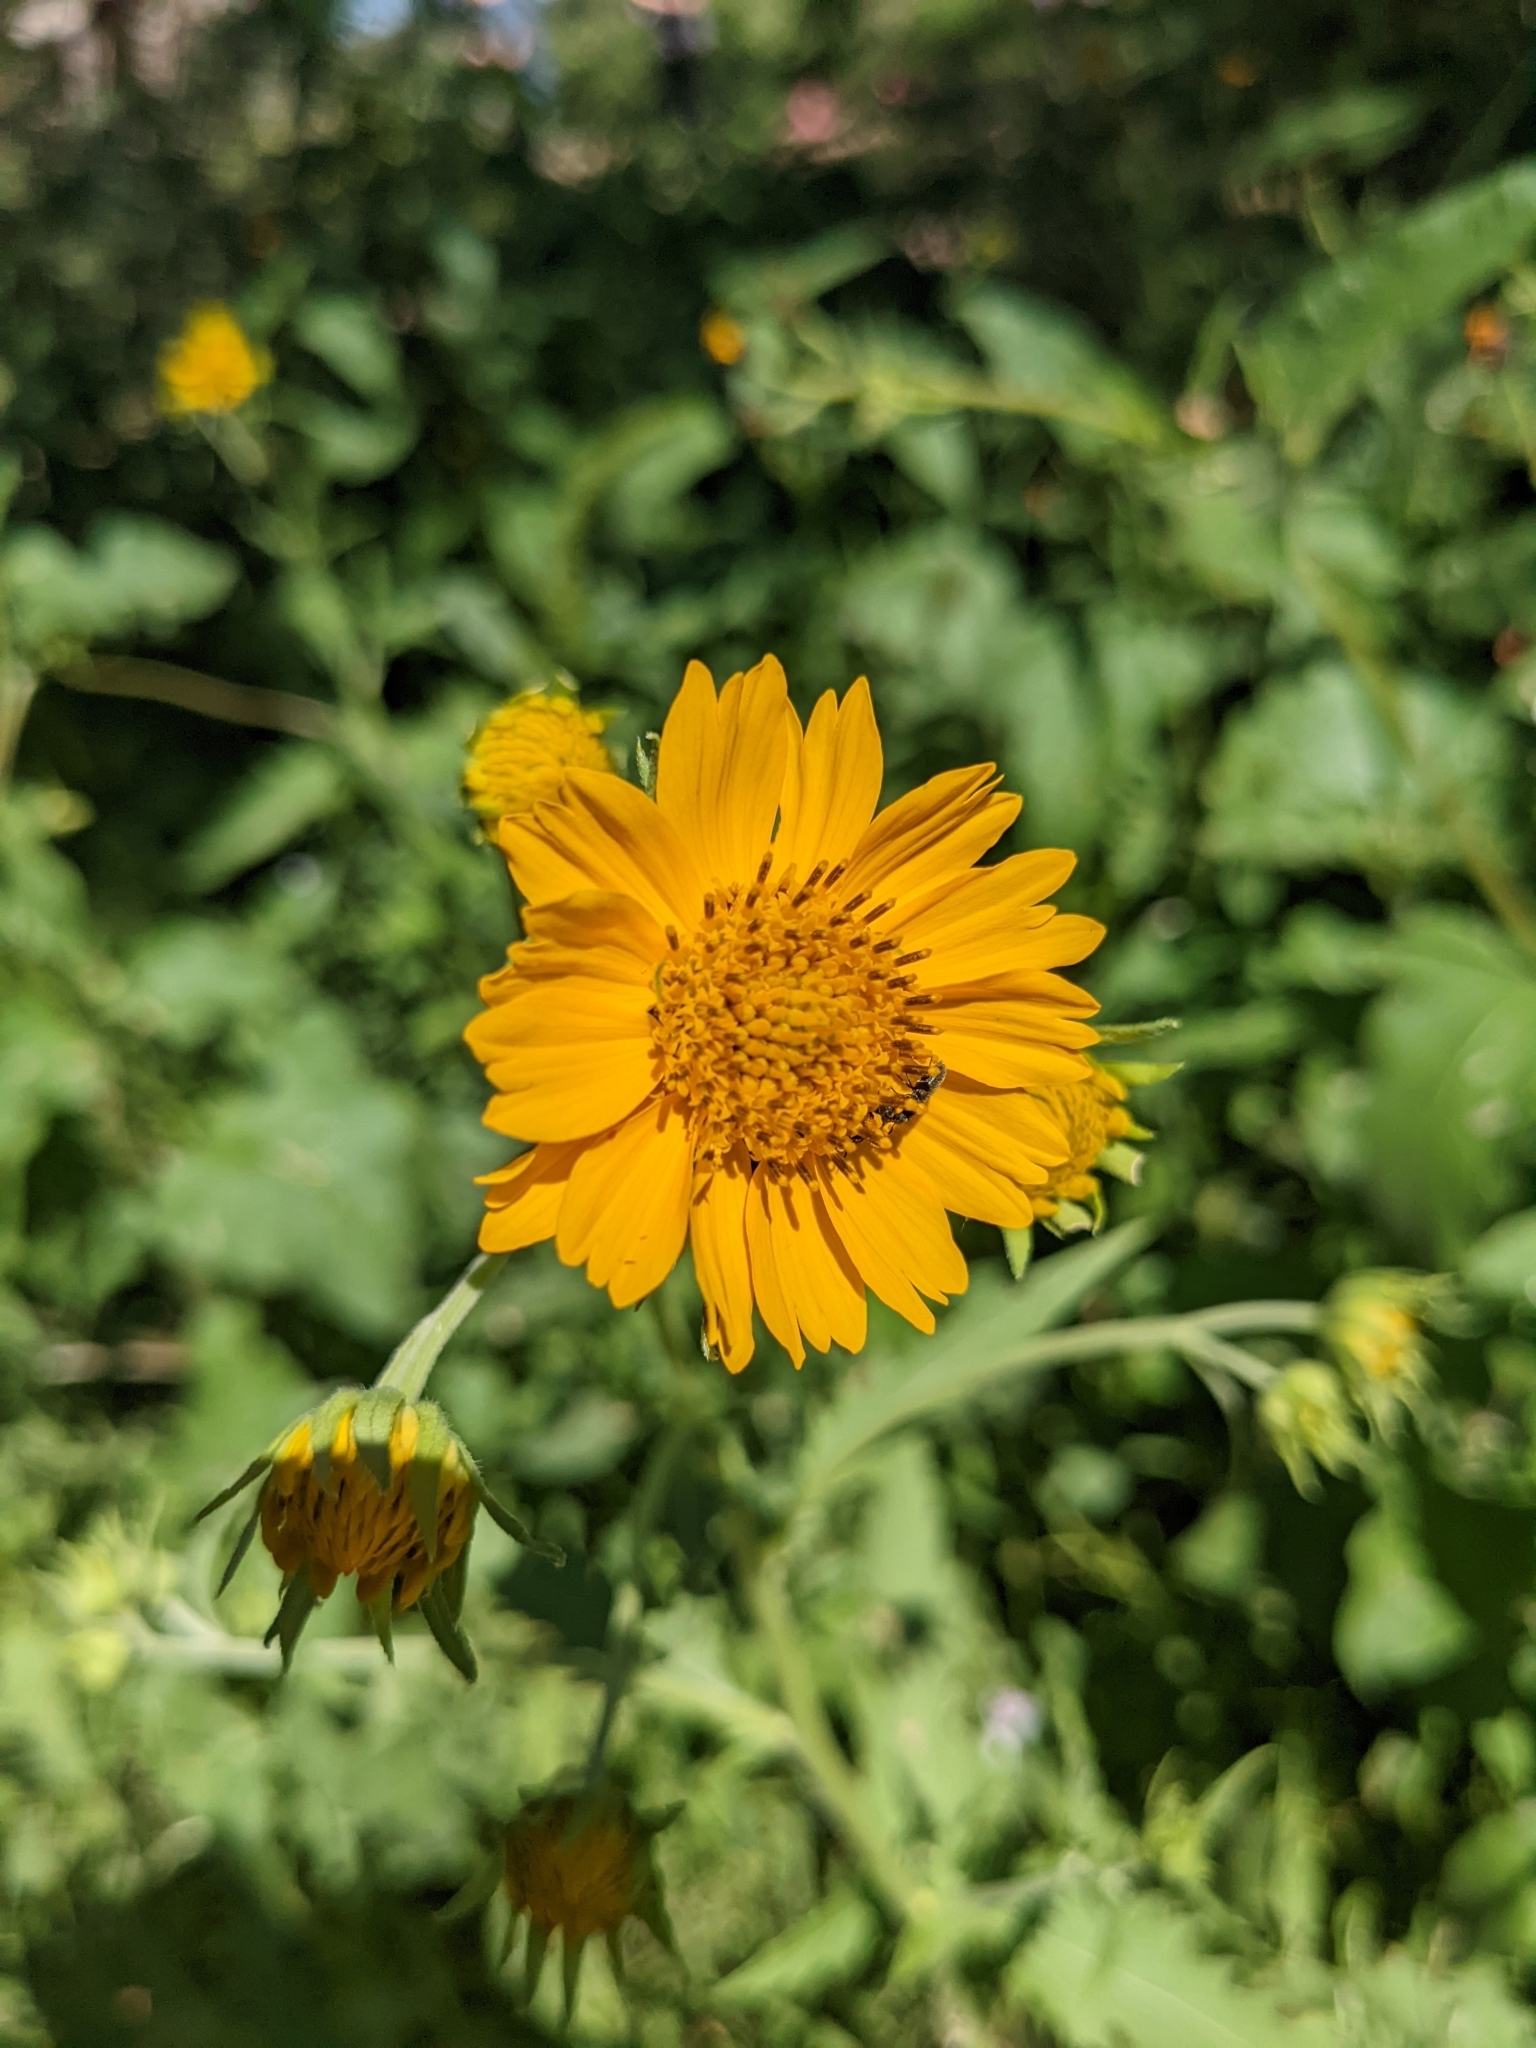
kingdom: Plantae
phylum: Tracheophyta
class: Magnoliopsida
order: Asterales
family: Asteraceae
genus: Verbesina
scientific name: Verbesina encelioides
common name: Golden crownbeard
